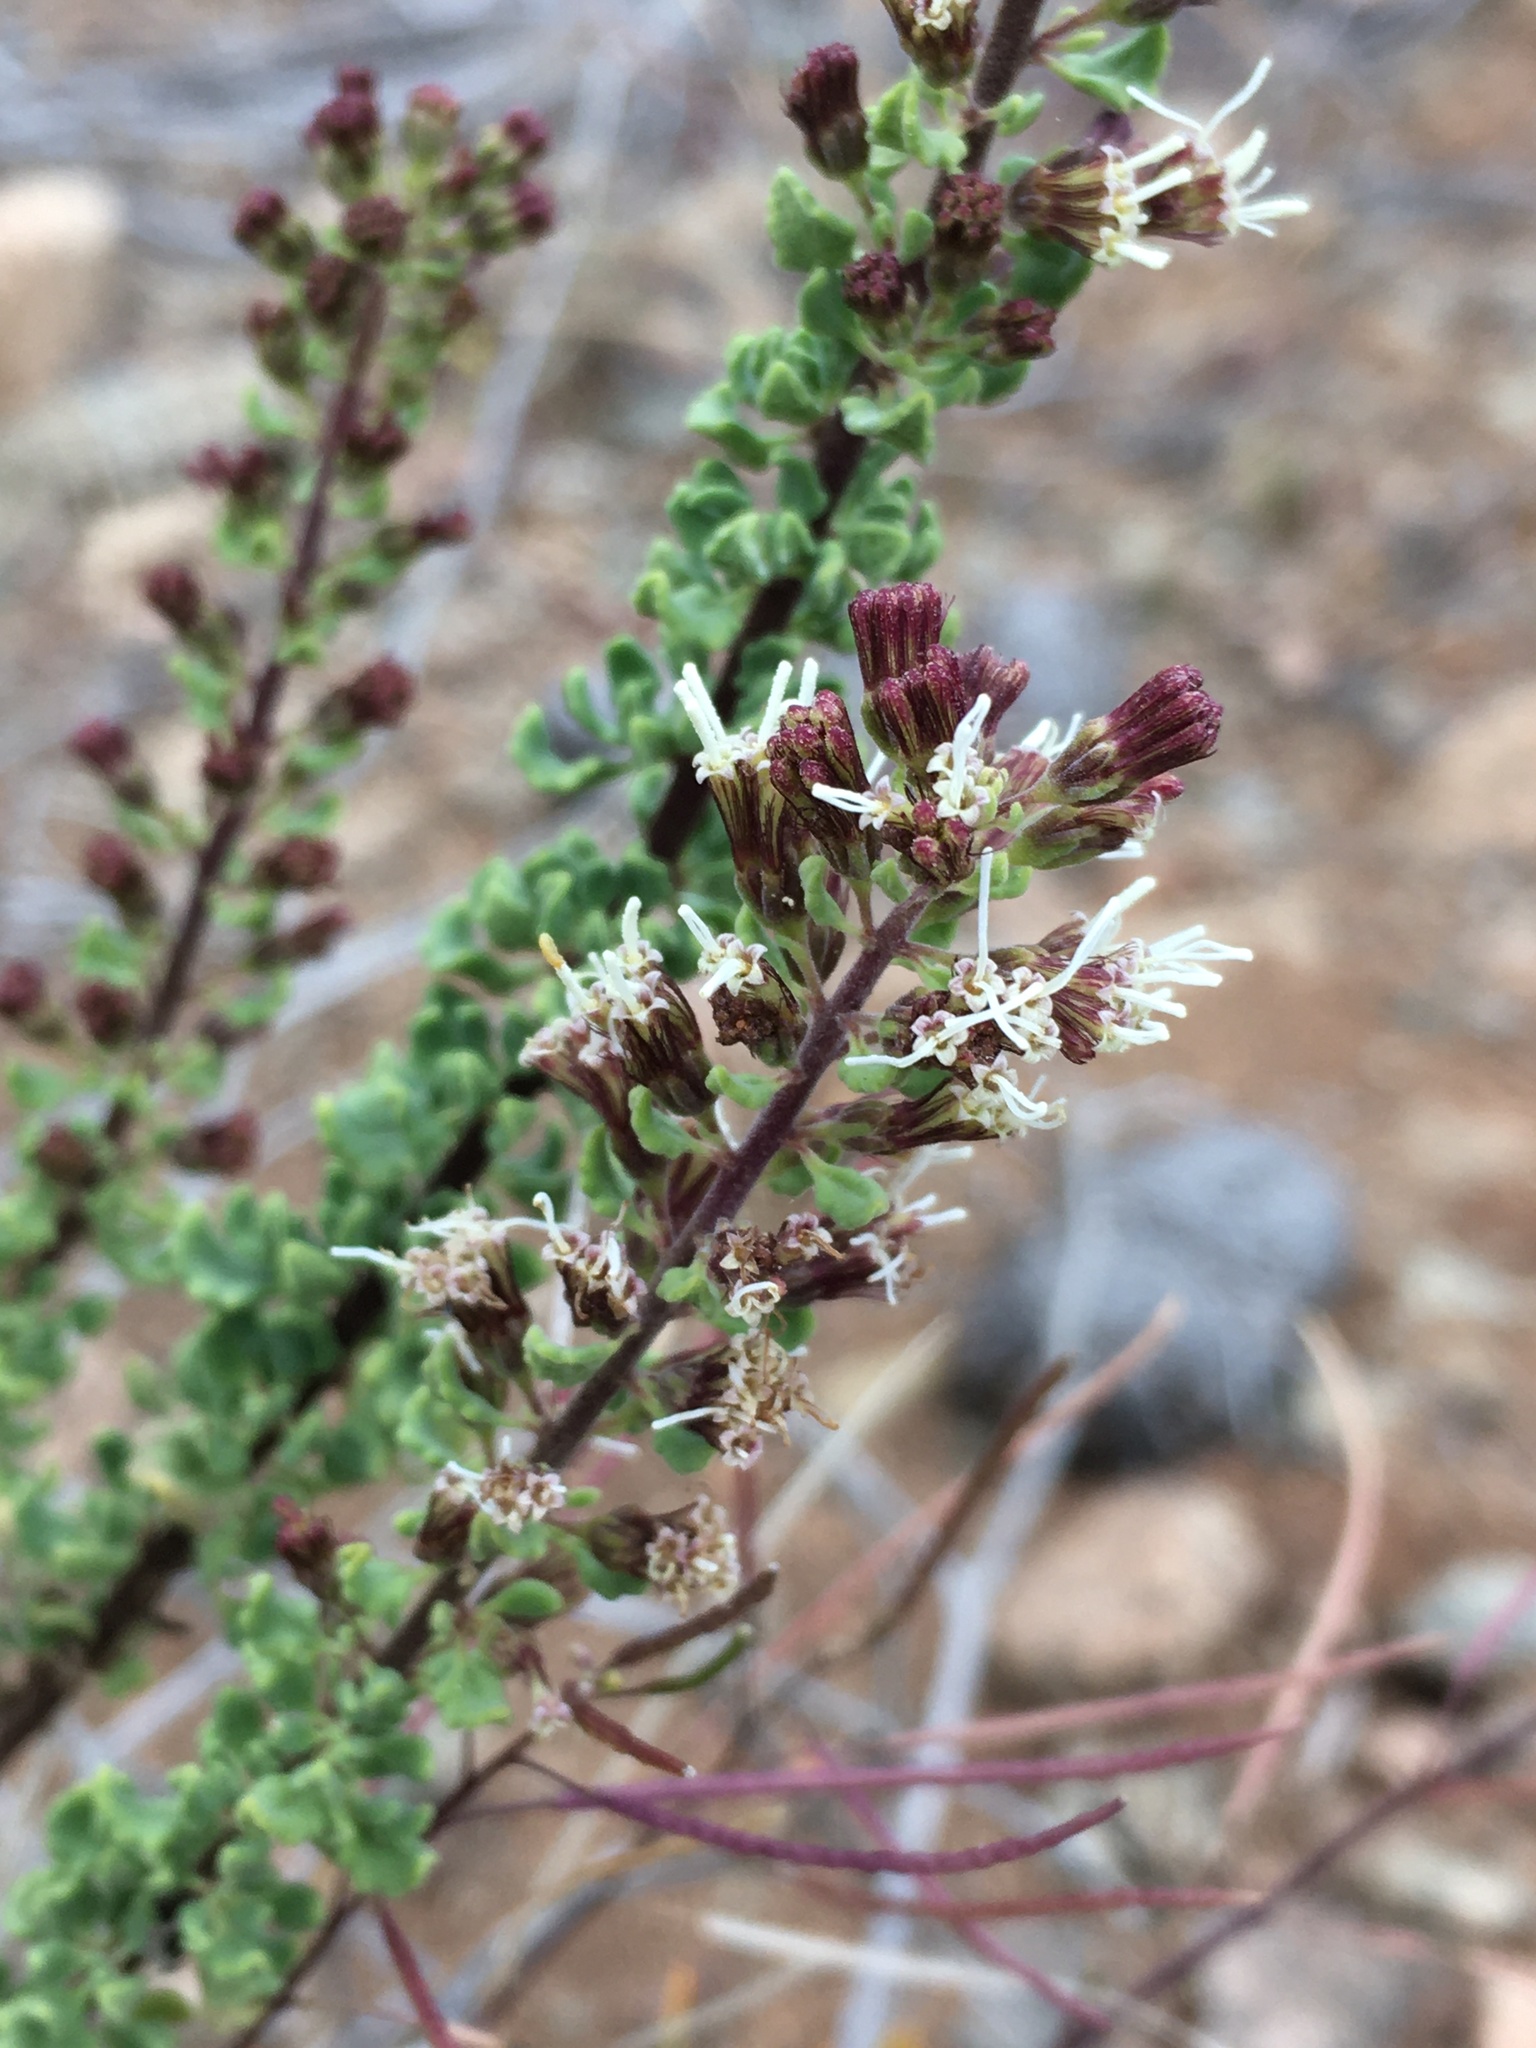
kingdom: Plantae
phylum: Tracheophyta
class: Magnoliopsida
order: Asterales
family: Asteraceae
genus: Ophryosporus
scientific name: Ophryosporus triangularis
